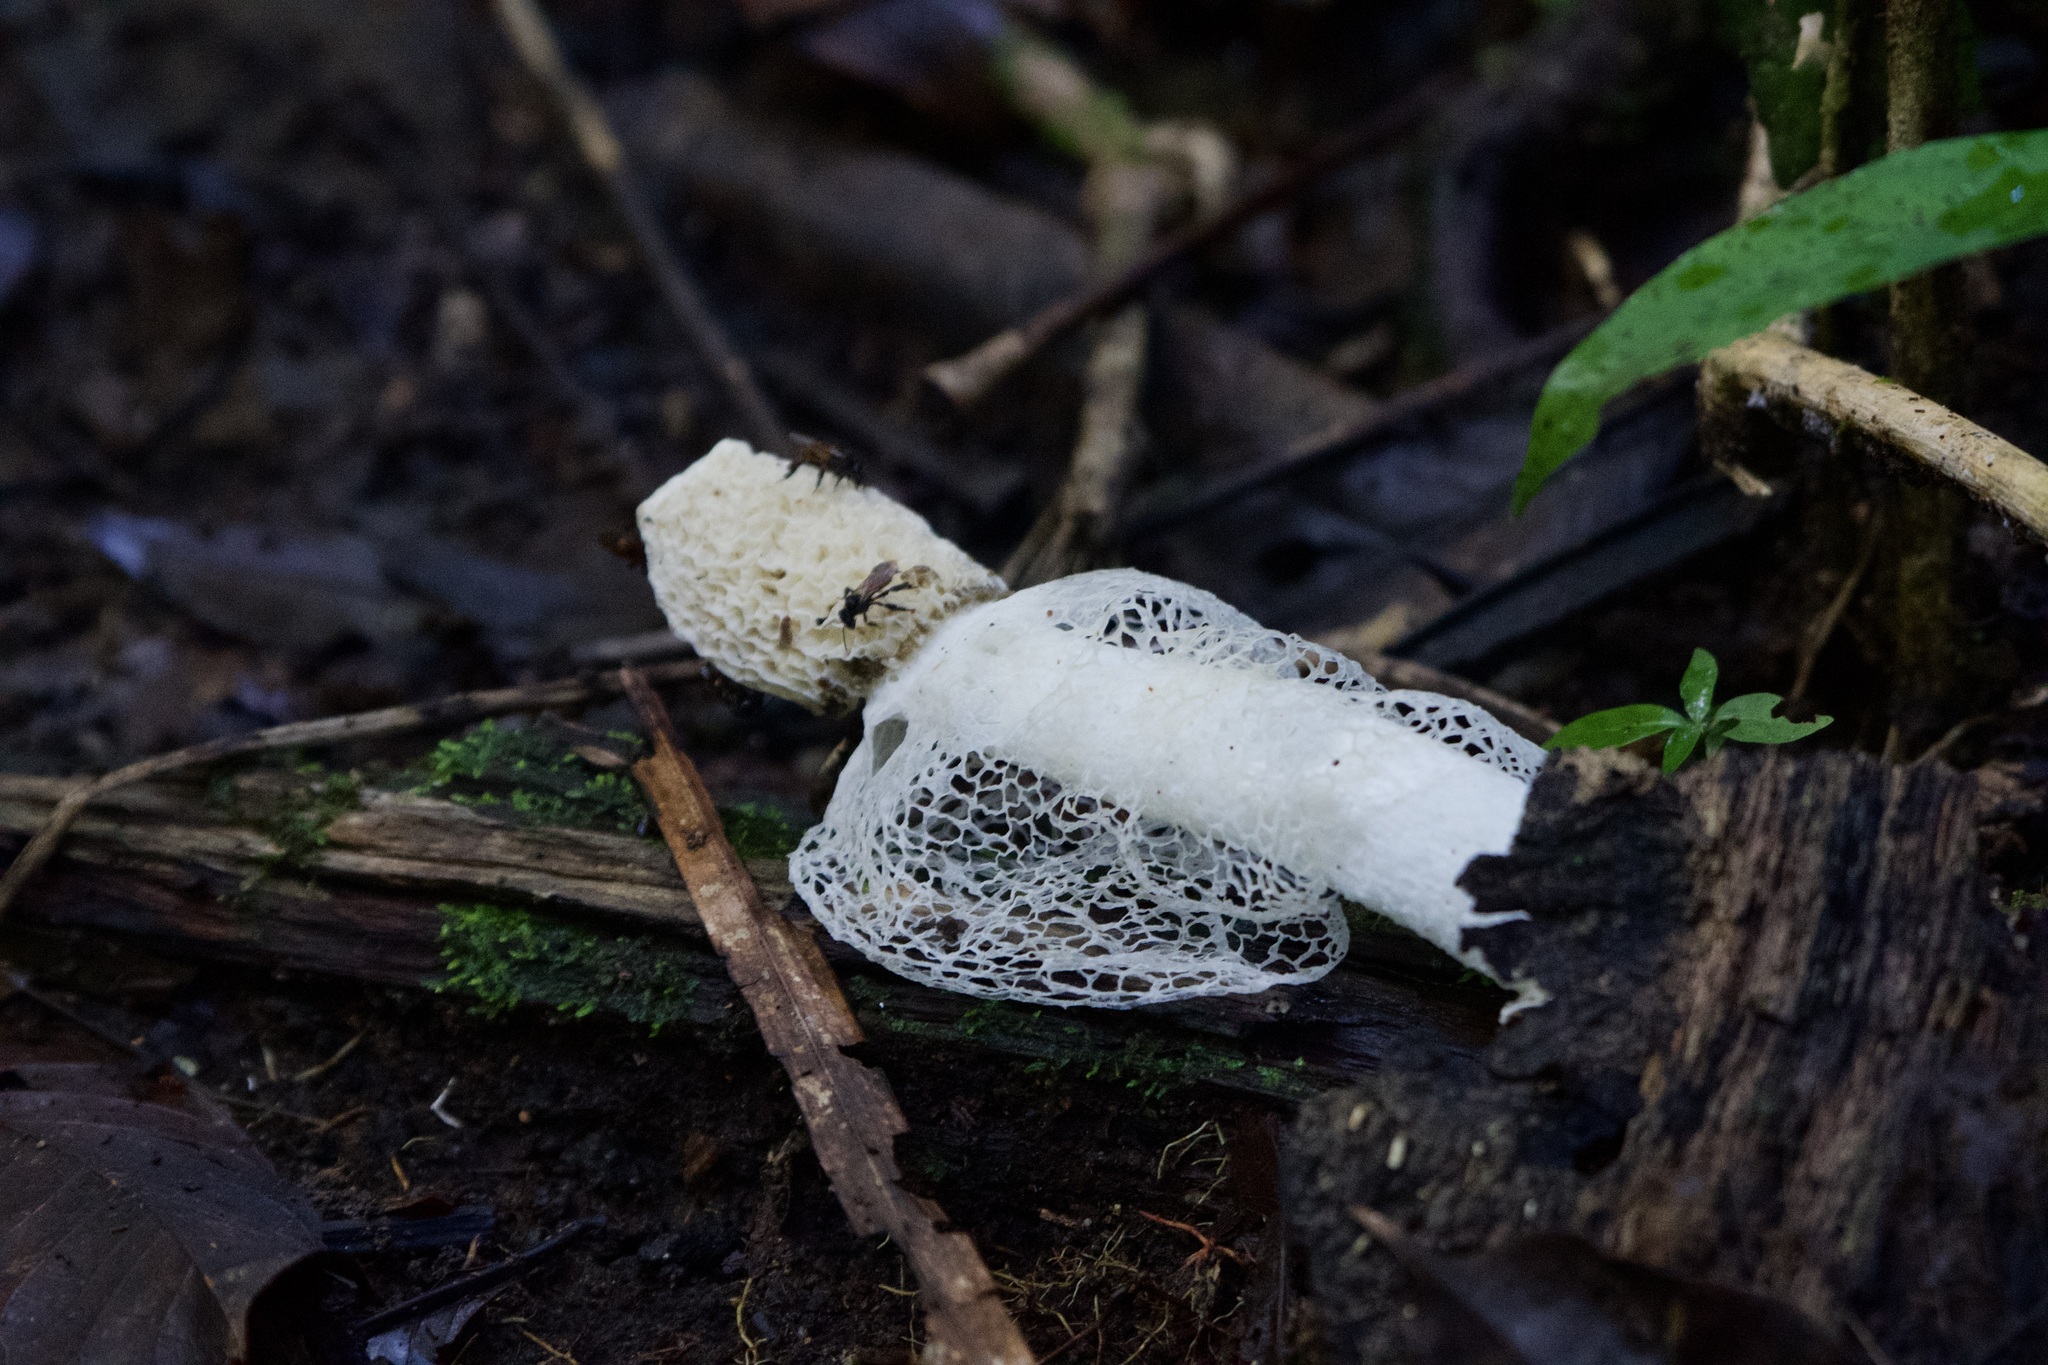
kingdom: Fungi
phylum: Basidiomycota
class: Agaricomycetes
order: Phallales
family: Phallaceae
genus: Phallus
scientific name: Phallus indusiatus
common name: Bridal veil stinkhorn
